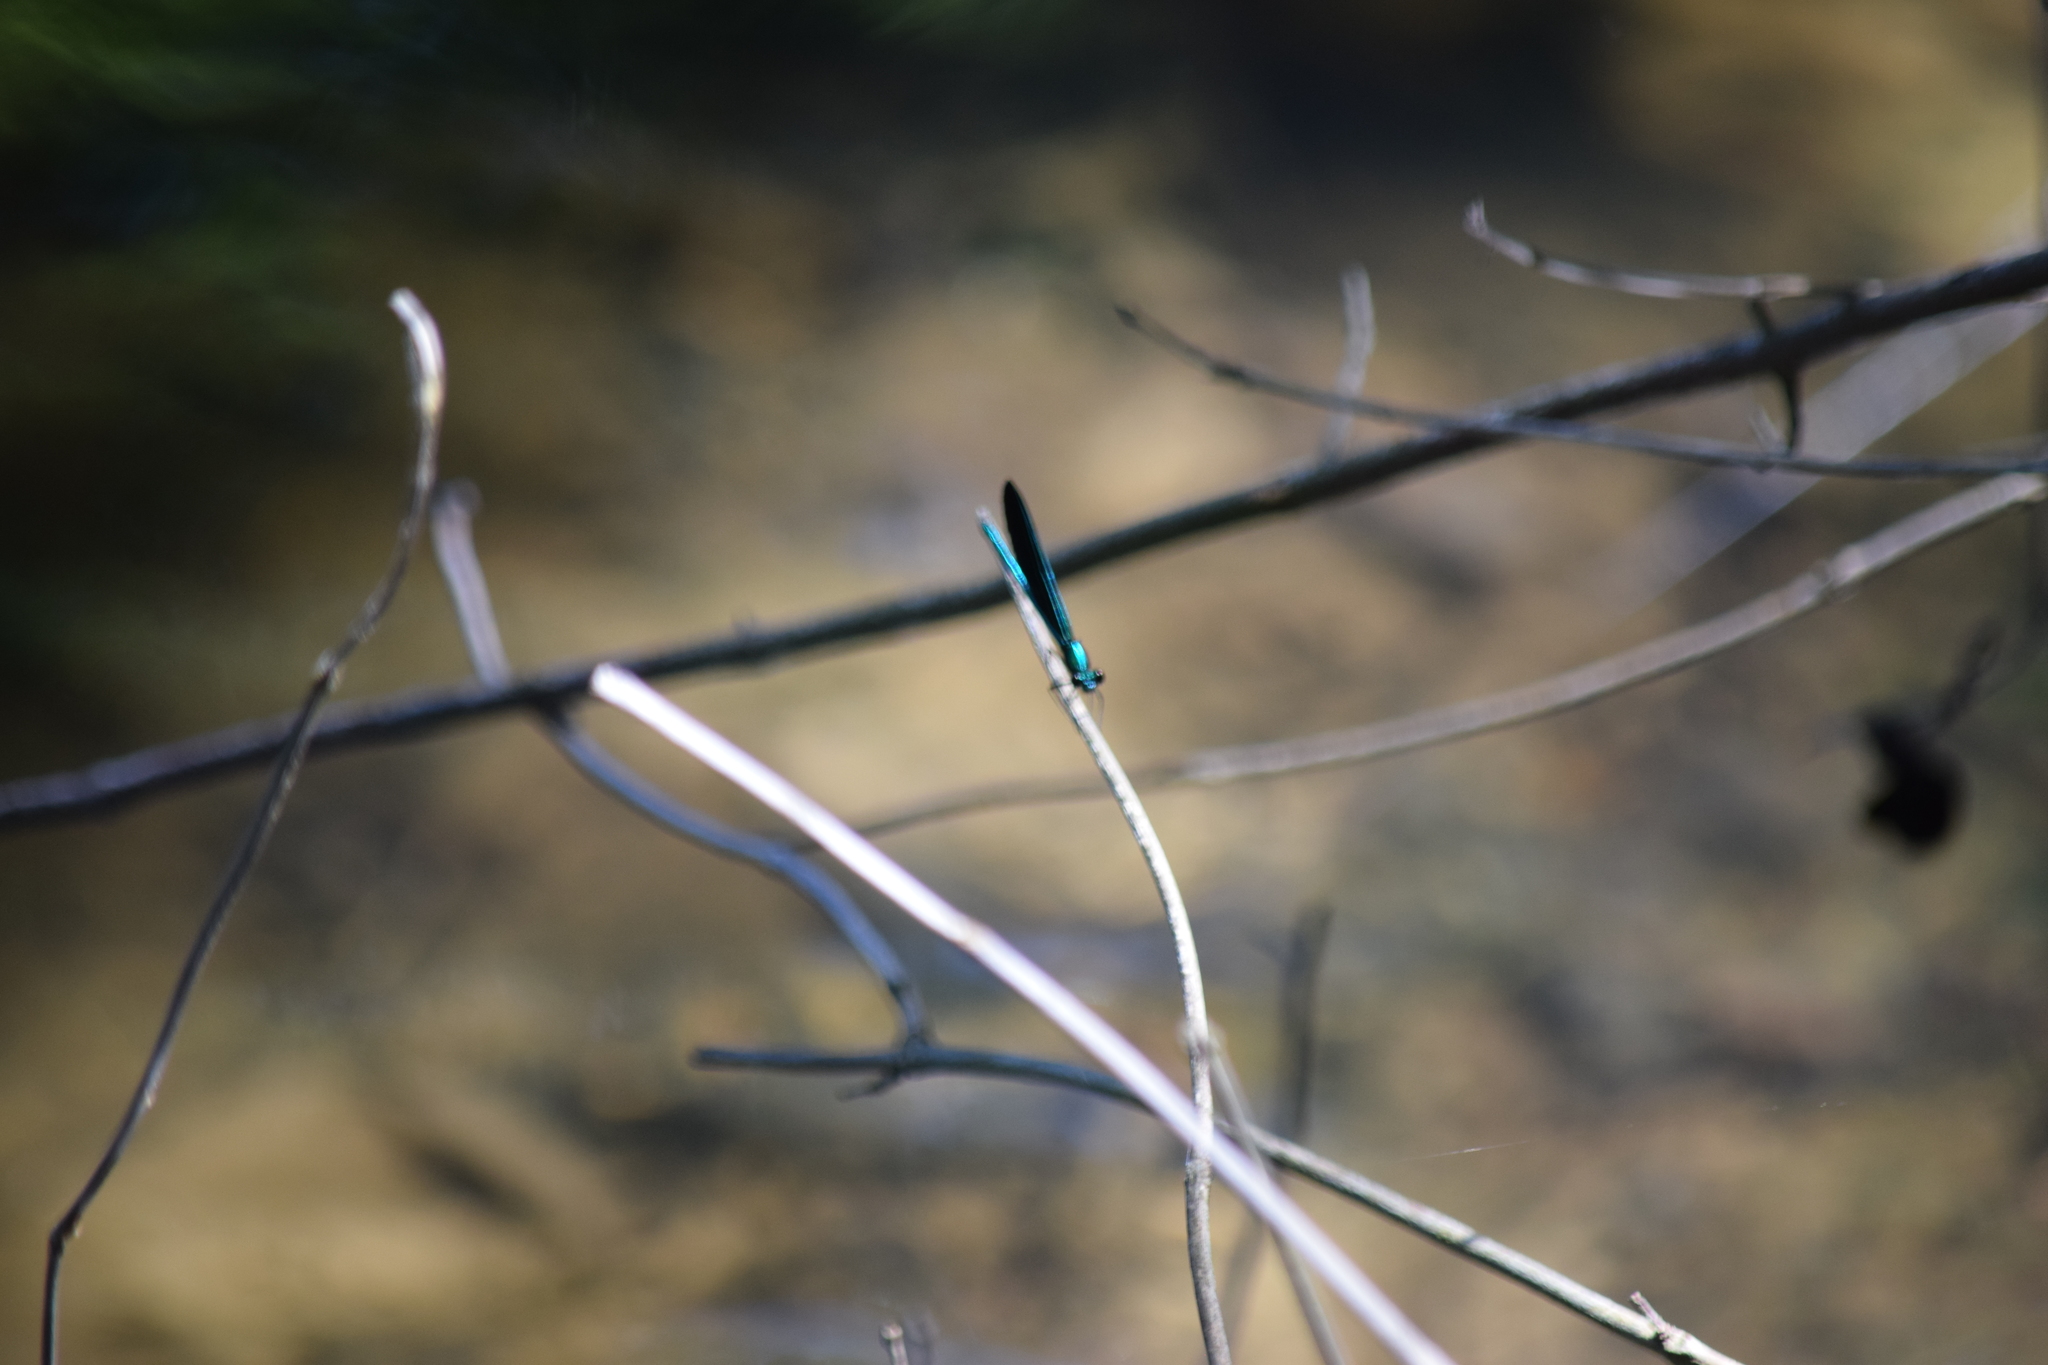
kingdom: Animalia
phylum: Arthropoda
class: Insecta
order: Odonata
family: Calopterygidae
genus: Calopteryx
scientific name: Calopteryx maculata
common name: Ebony jewelwing
